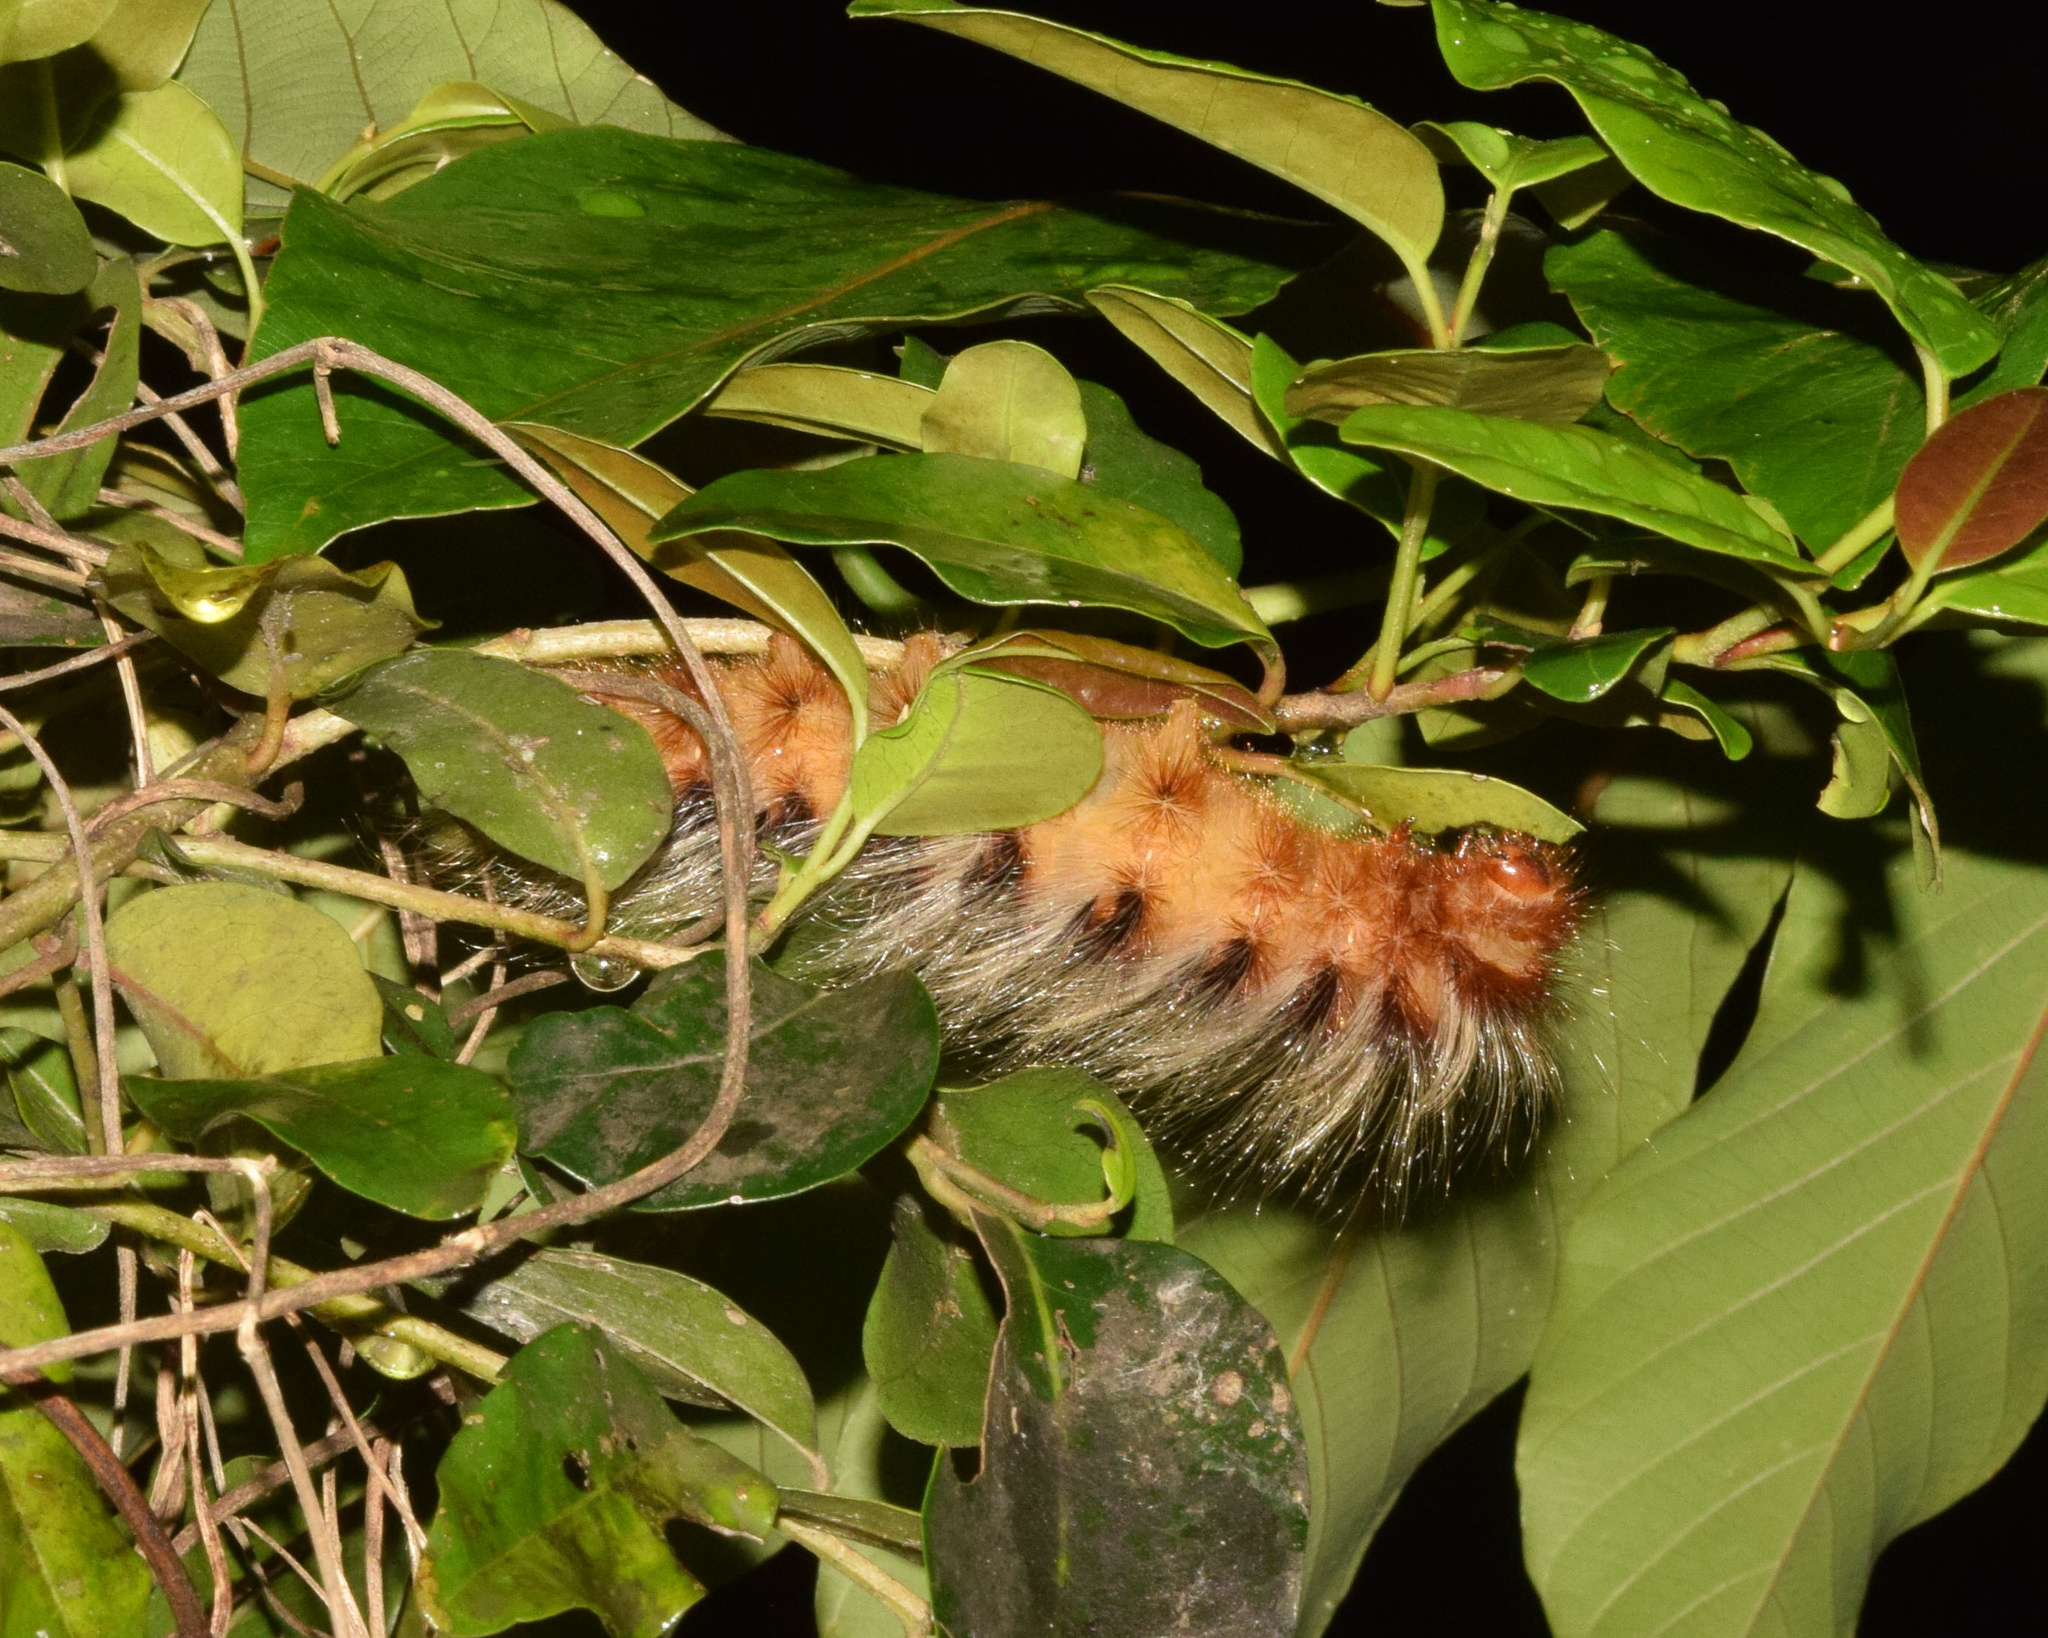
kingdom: Animalia
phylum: Arthropoda
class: Insecta
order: Lepidoptera
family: Eupterotidae
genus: Striphnopteryx
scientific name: Striphnopteryx edulis
